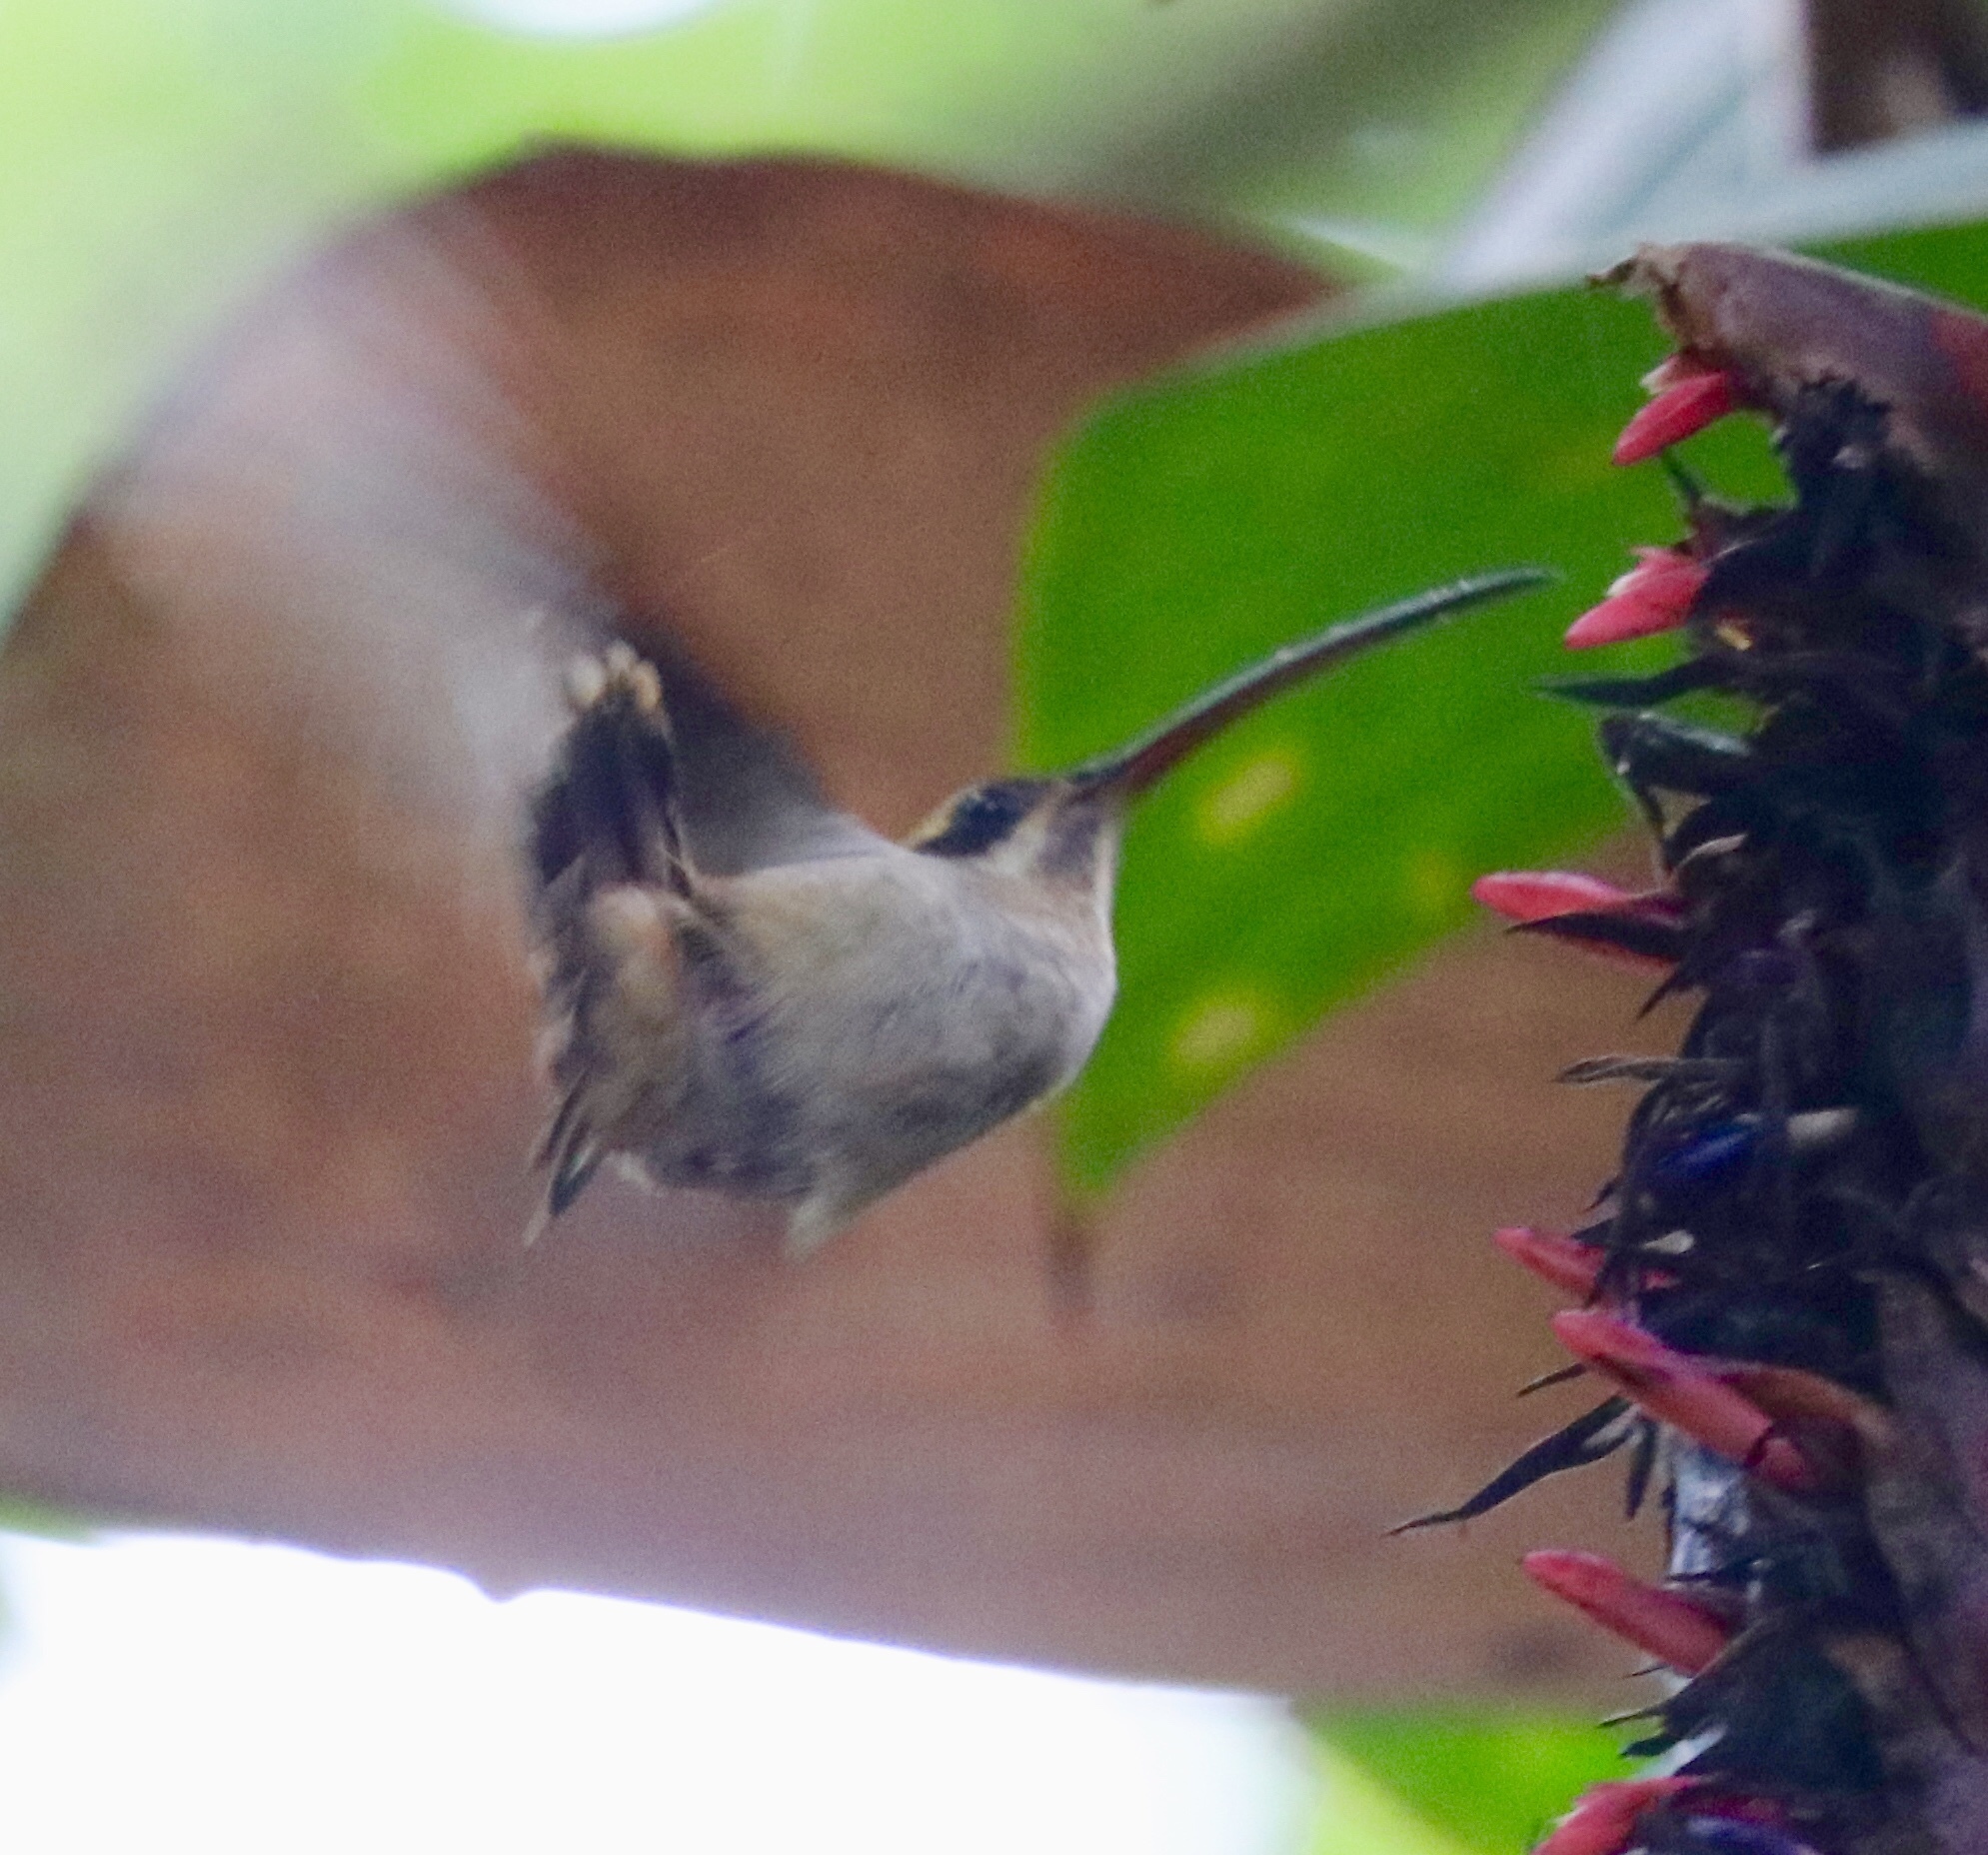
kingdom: Animalia
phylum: Chordata
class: Aves
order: Apodiformes
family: Trochilidae
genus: Phaethornis
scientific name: Phaethornis longirostris
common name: Long-billed hermit
